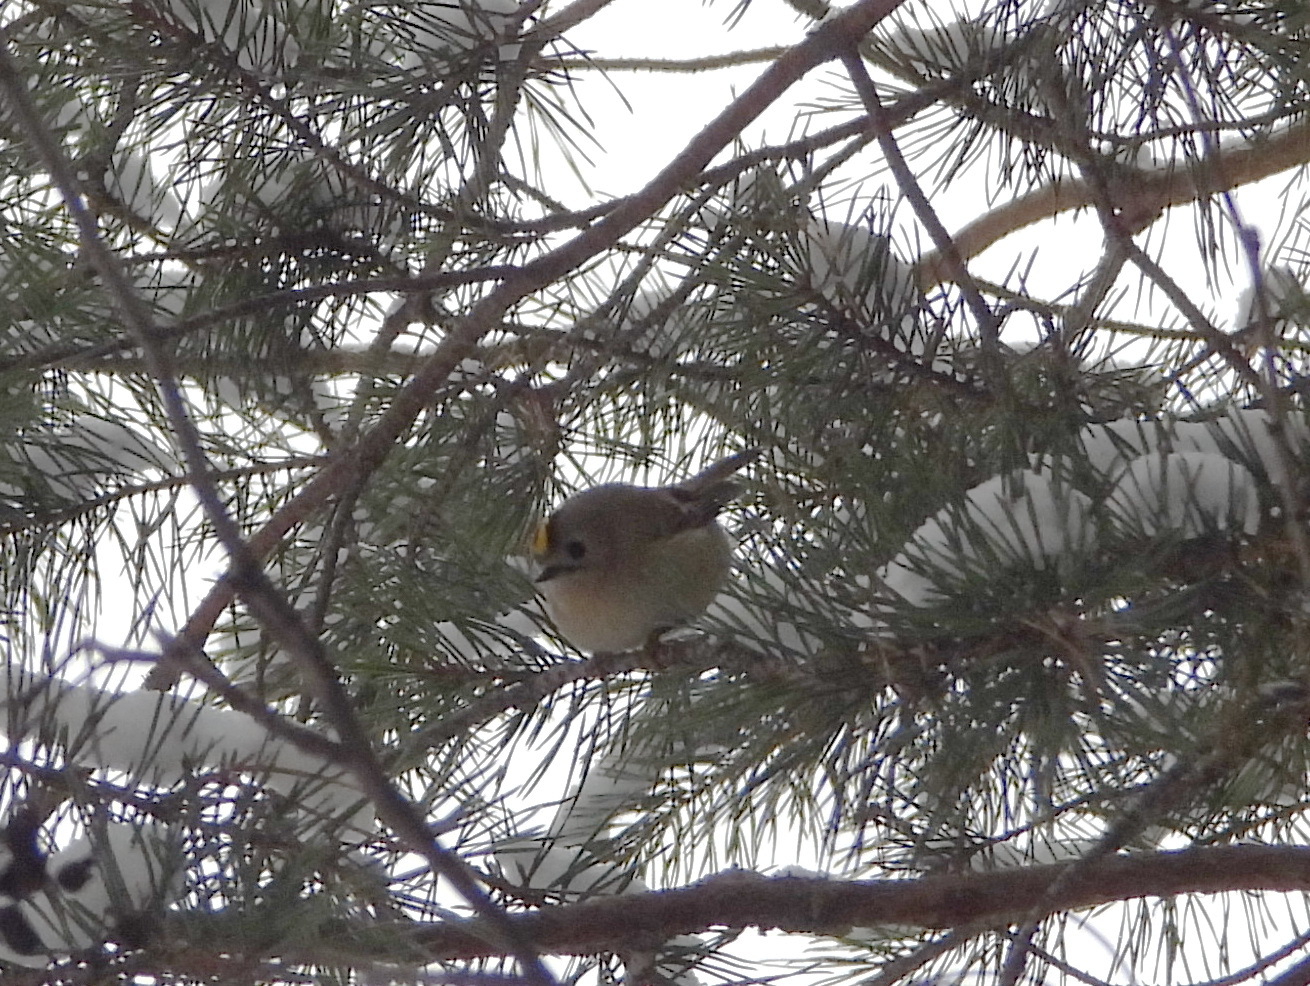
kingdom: Animalia
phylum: Chordata
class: Aves
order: Passeriformes
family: Regulidae
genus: Regulus
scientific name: Regulus regulus
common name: Goldcrest
